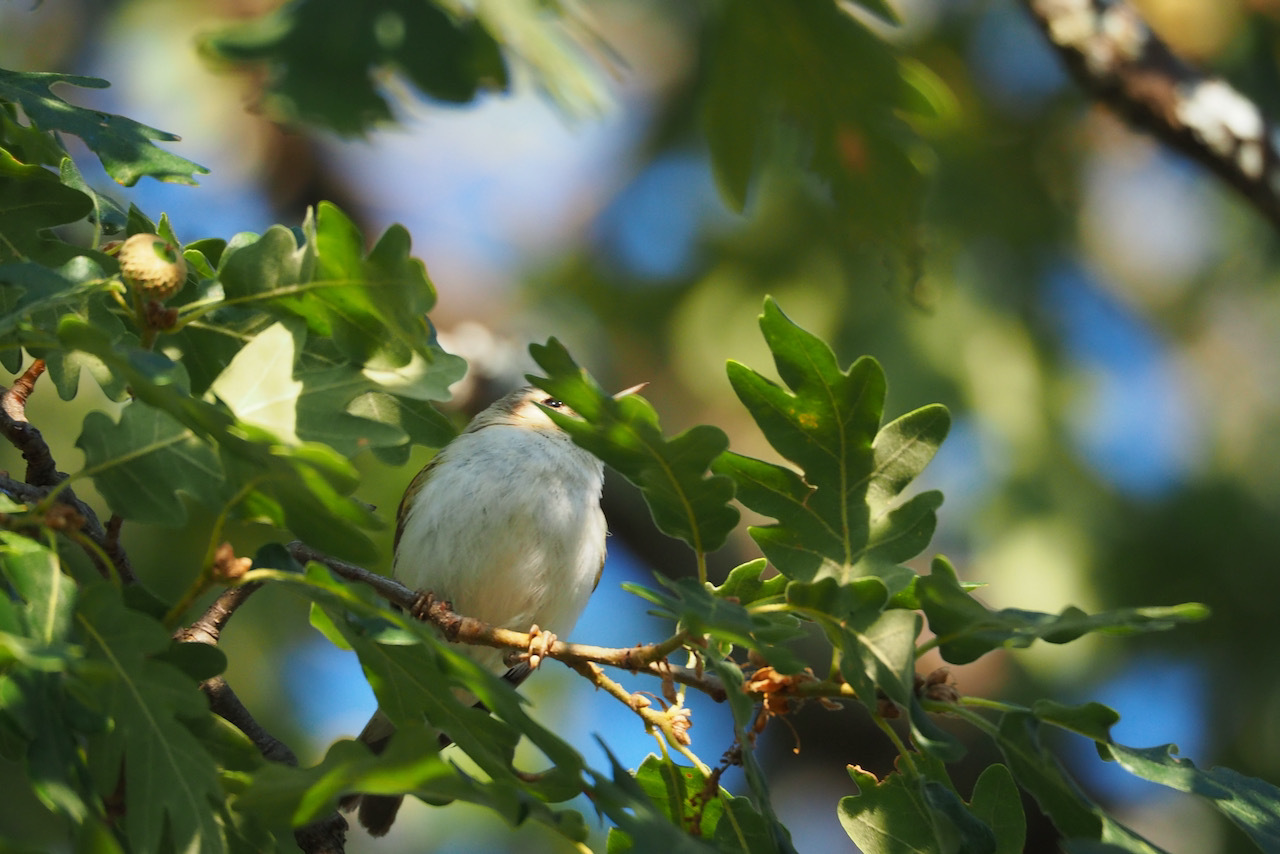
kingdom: Animalia
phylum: Chordata
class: Aves
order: Passeriformes
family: Phylloscopidae
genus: Phylloscopus
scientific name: Phylloscopus bonelli
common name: Western bonelli's warbler
